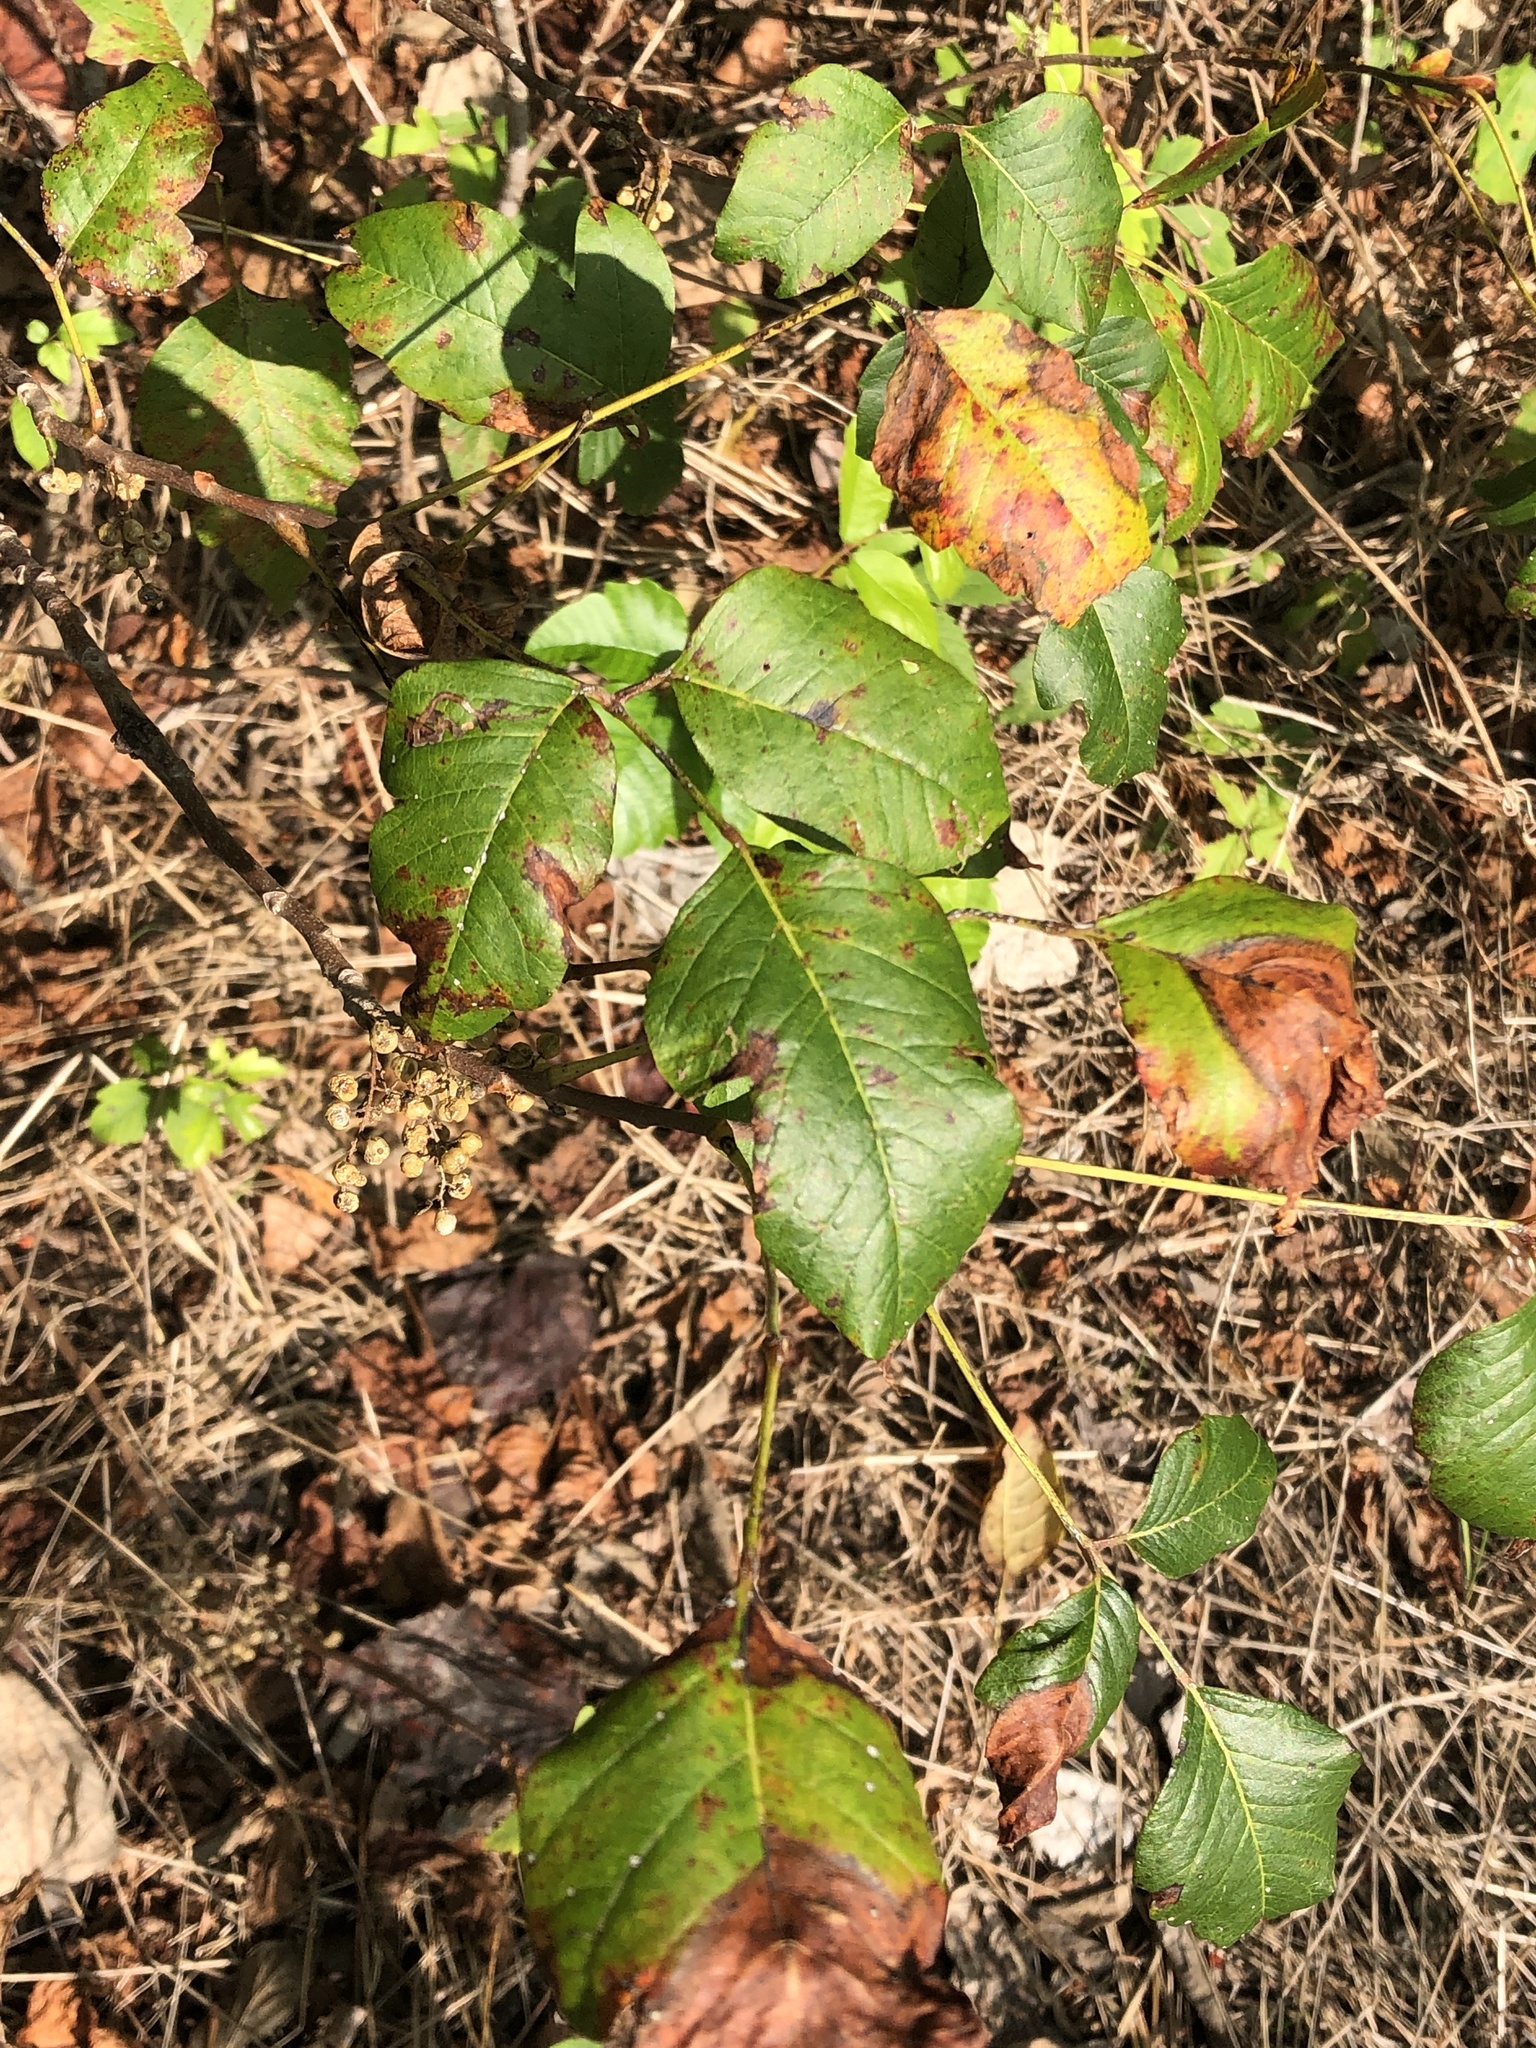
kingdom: Plantae
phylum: Tracheophyta
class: Magnoliopsida
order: Sapindales
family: Anacardiaceae
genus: Toxicodendron
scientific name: Toxicodendron radicans
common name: Poison ivy
